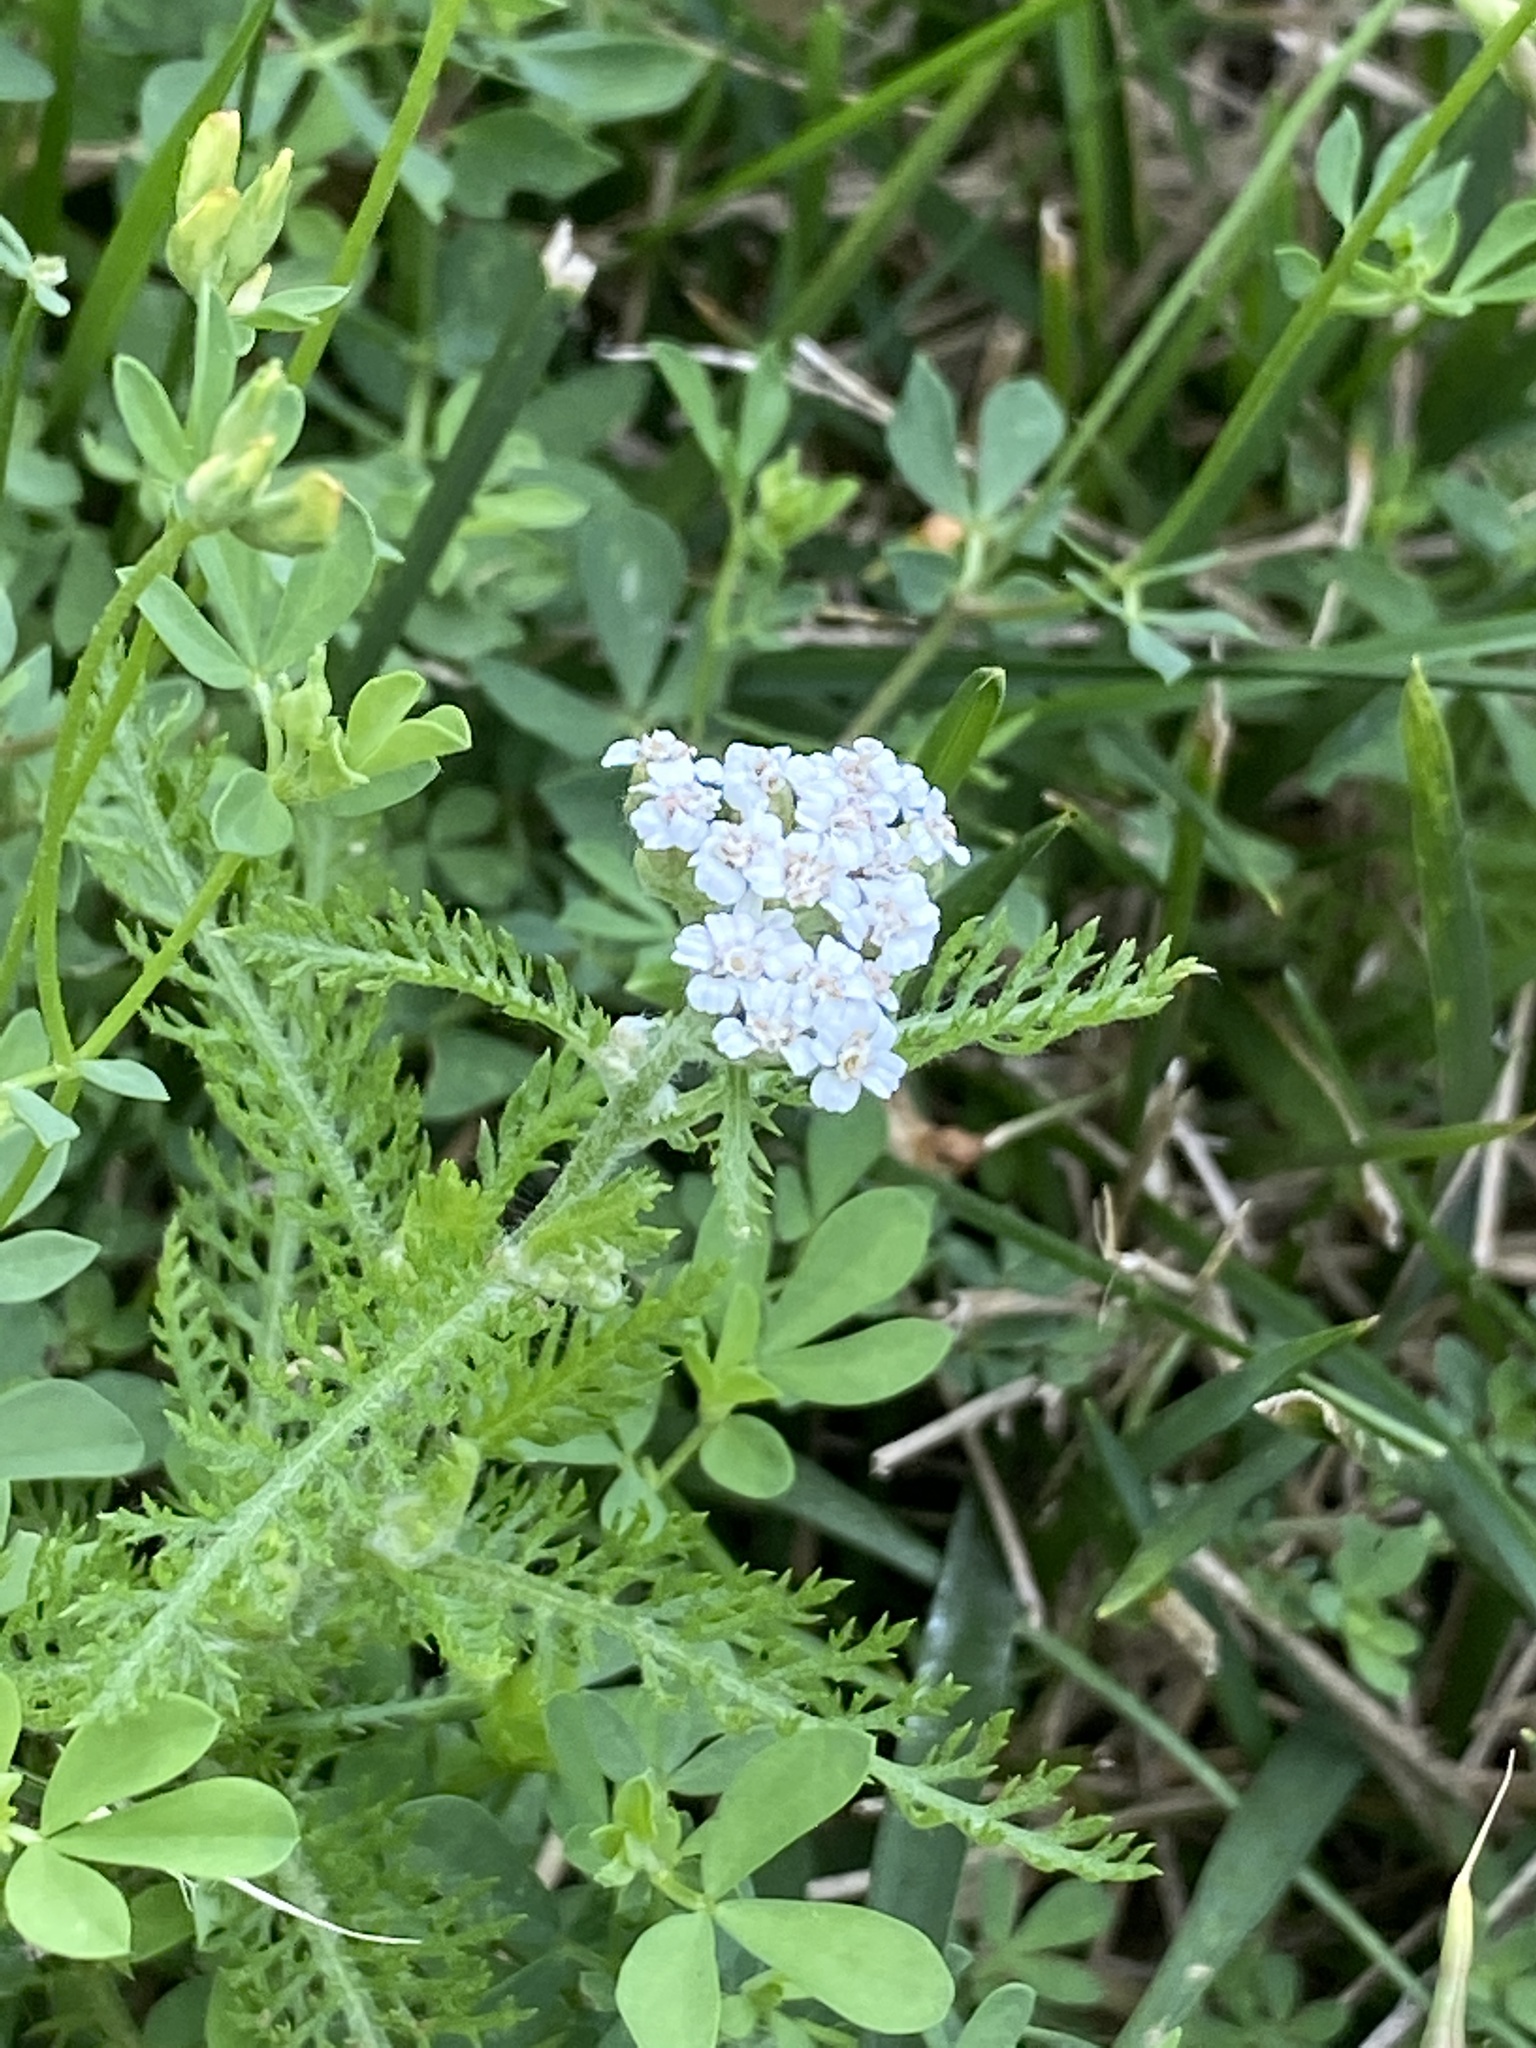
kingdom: Plantae
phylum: Tracheophyta
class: Magnoliopsida
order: Asterales
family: Asteraceae
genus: Achillea
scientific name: Achillea millefolium
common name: Yarrow
